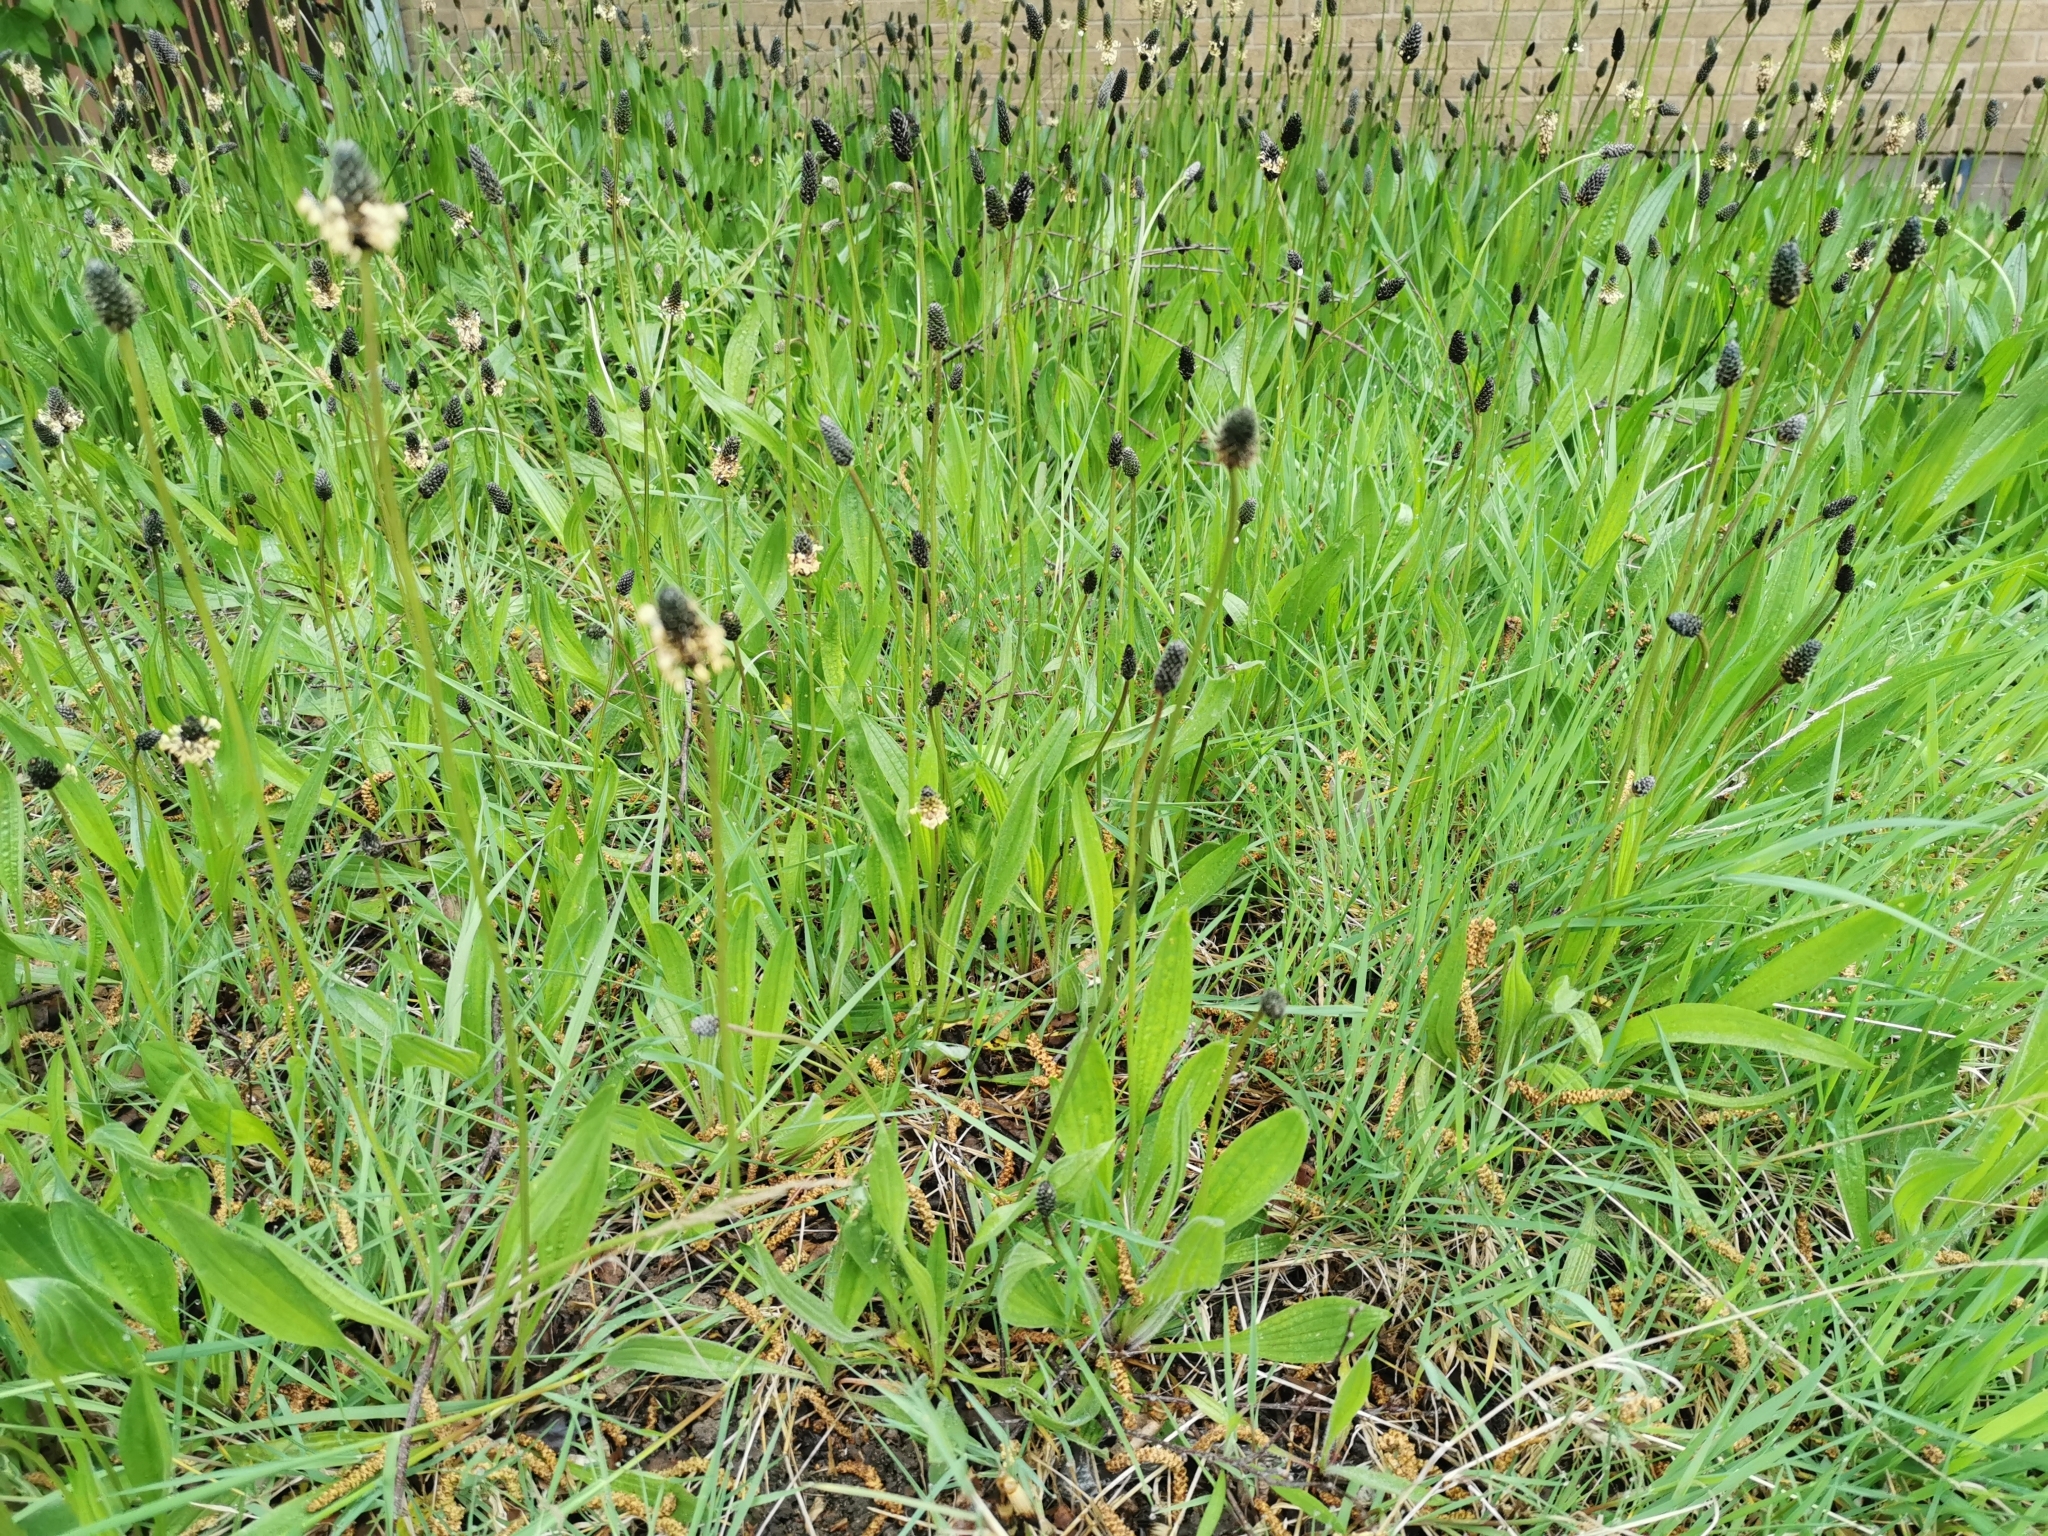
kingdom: Plantae
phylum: Tracheophyta
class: Magnoliopsida
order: Lamiales
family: Plantaginaceae
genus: Plantago
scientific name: Plantago lanceolata
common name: Ribwort plantain
